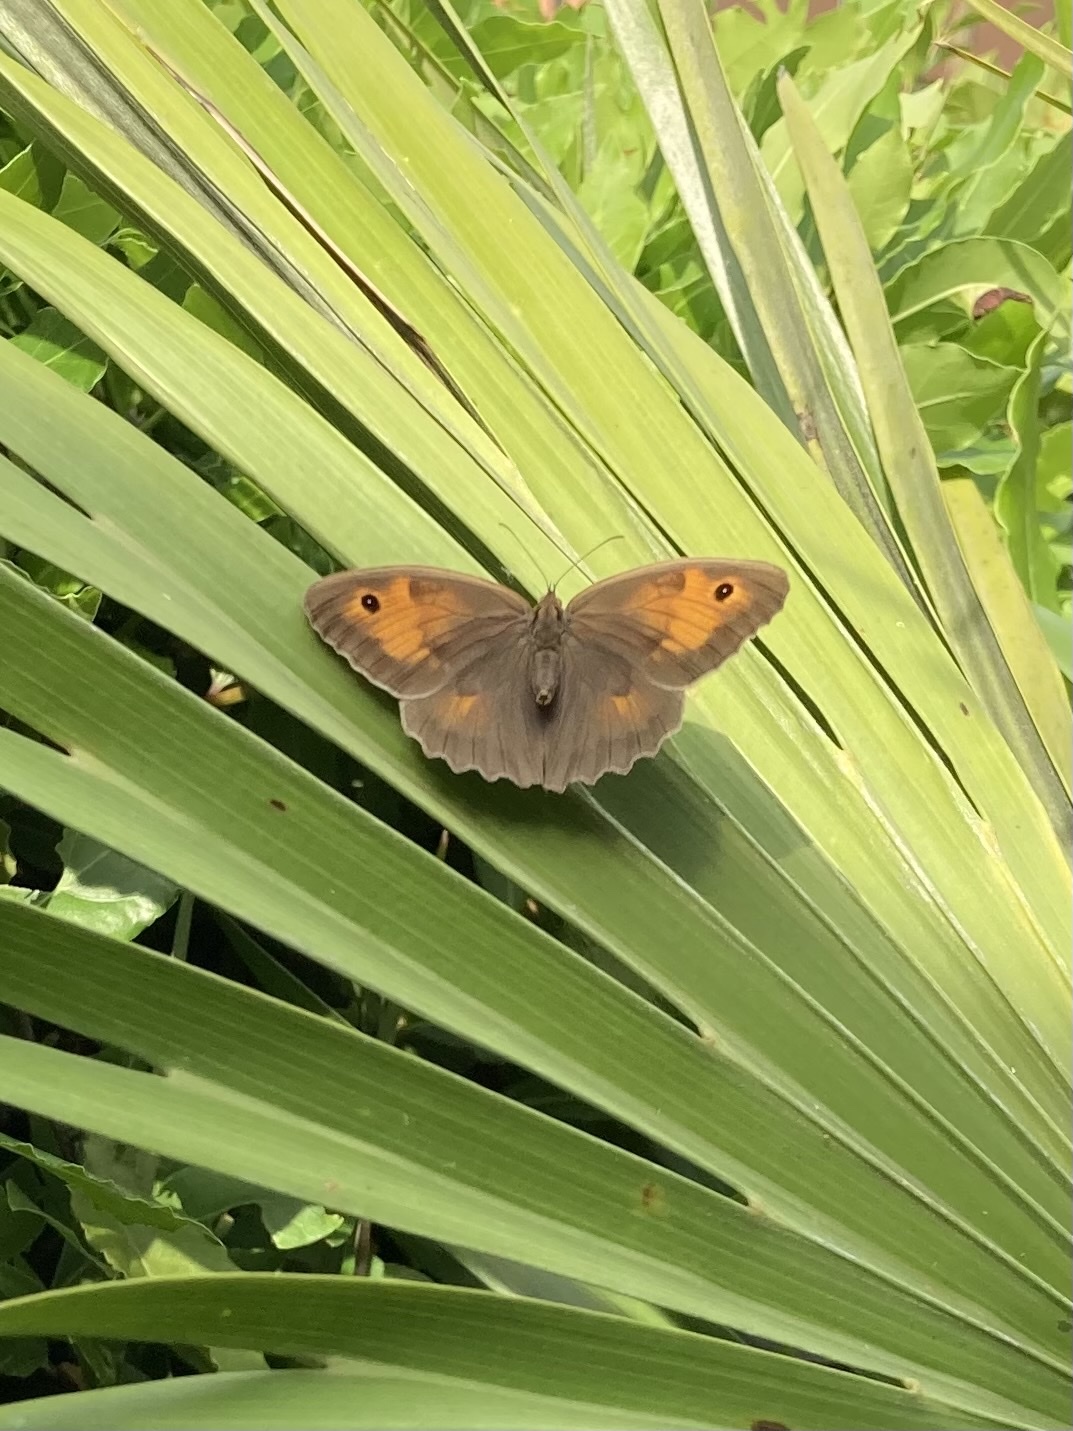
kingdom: Animalia
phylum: Arthropoda
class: Insecta
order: Lepidoptera
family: Nymphalidae
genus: Maniola
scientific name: Maniola jurtina
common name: Meadow brown
